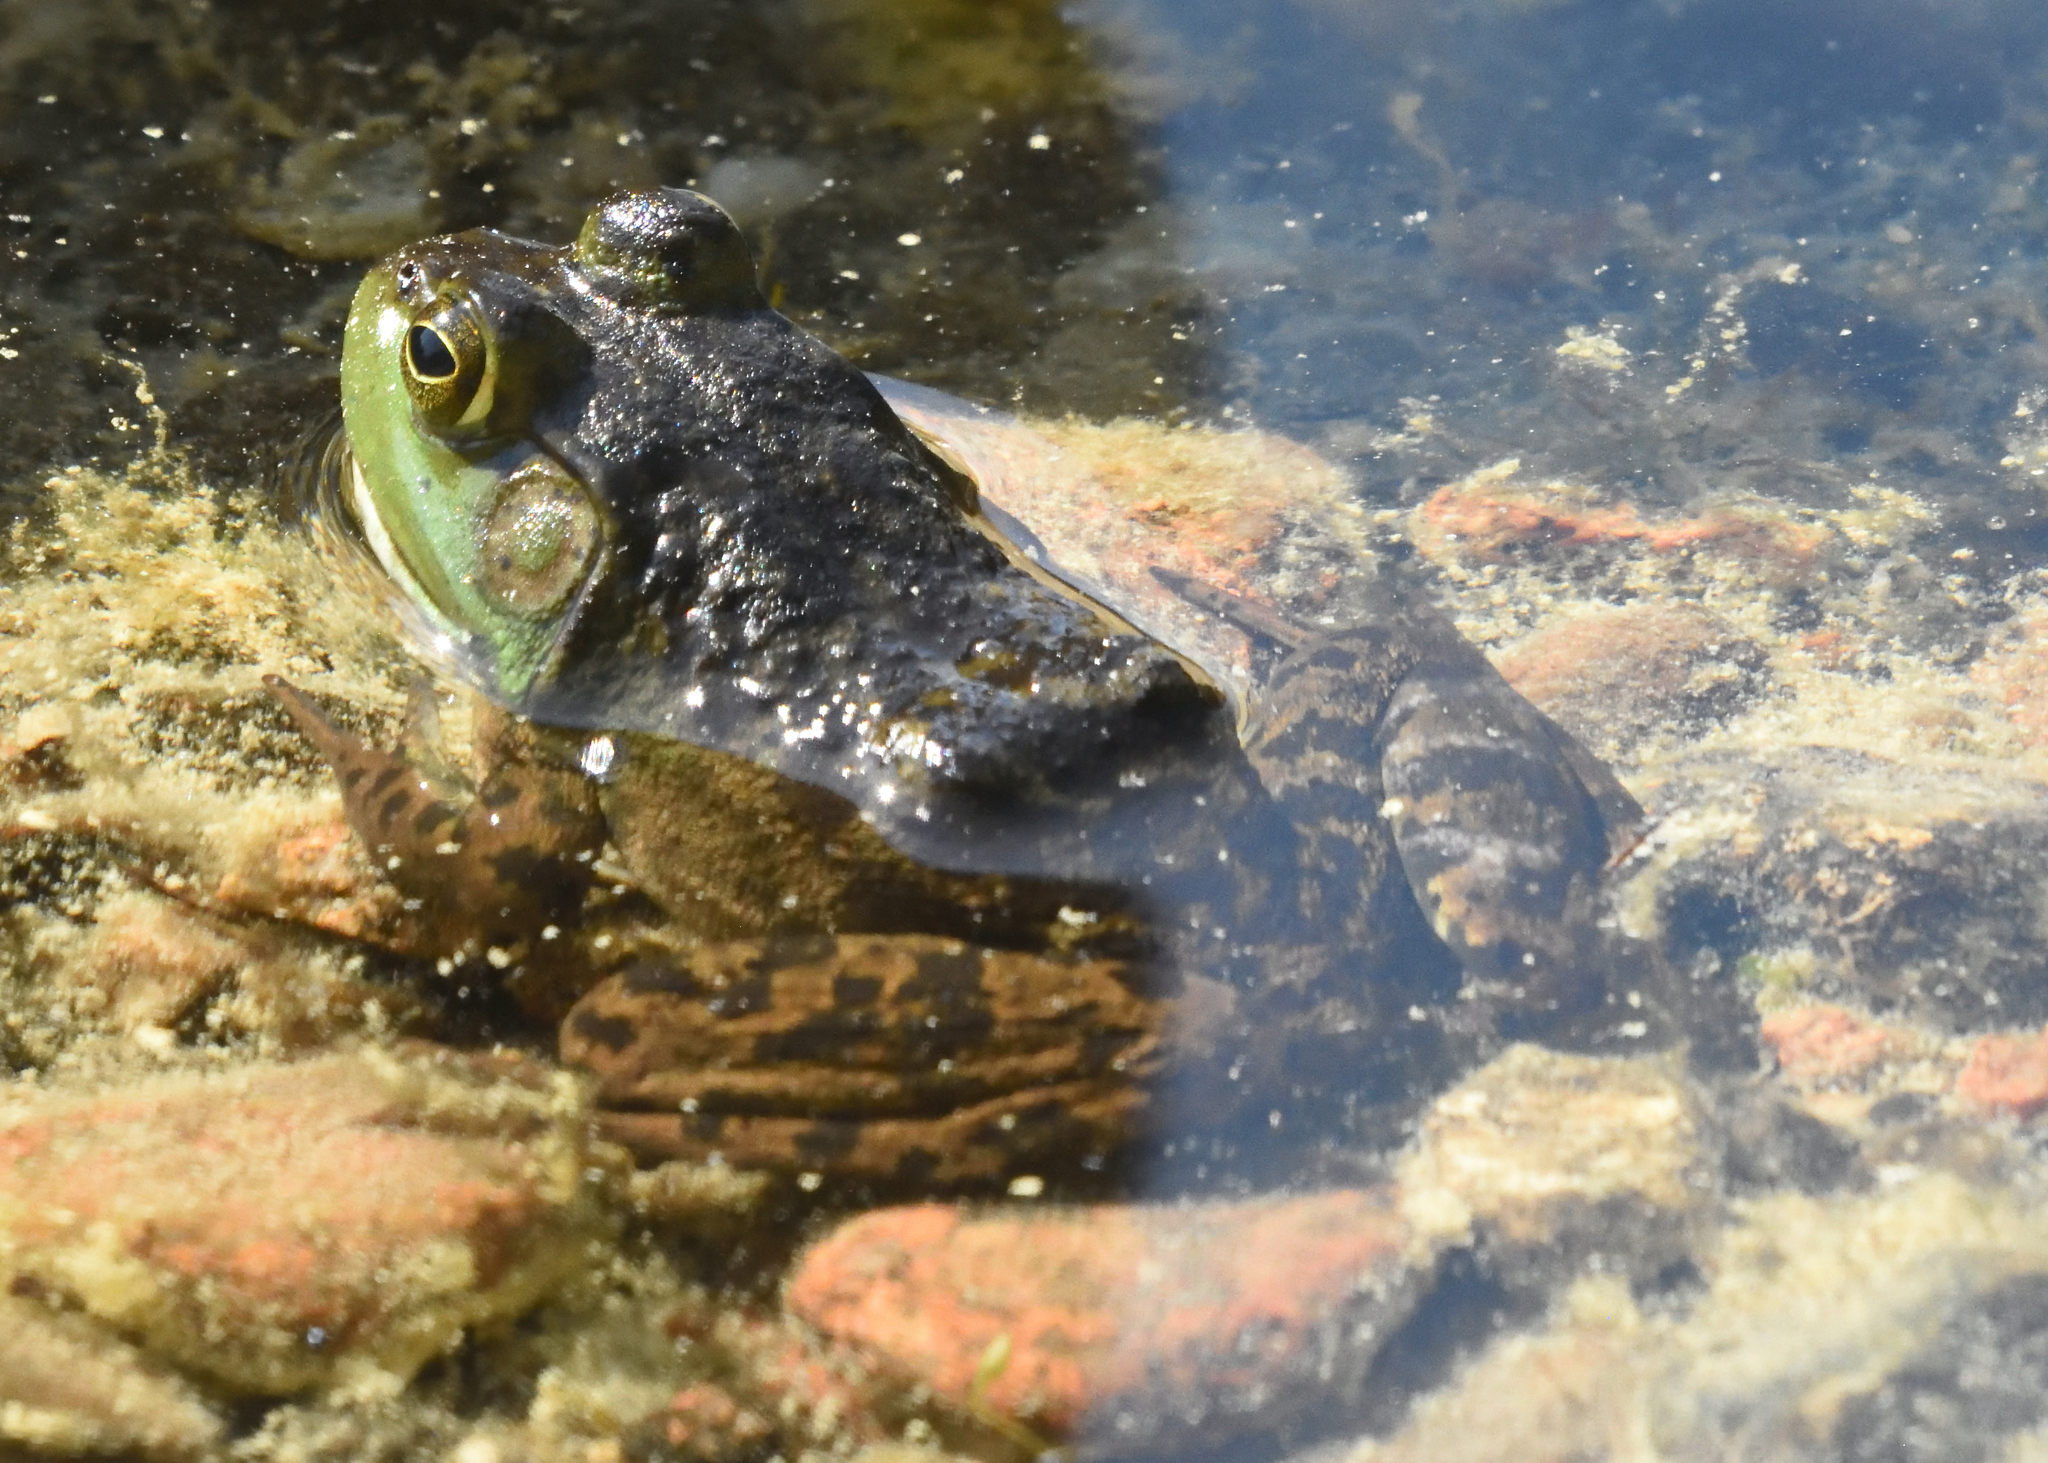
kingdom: Animalia
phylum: Chordata
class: Amphibia
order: Anura
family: Ranidae
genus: Lithobates
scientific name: Lithobates catesbeianus
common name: American bullfrog
